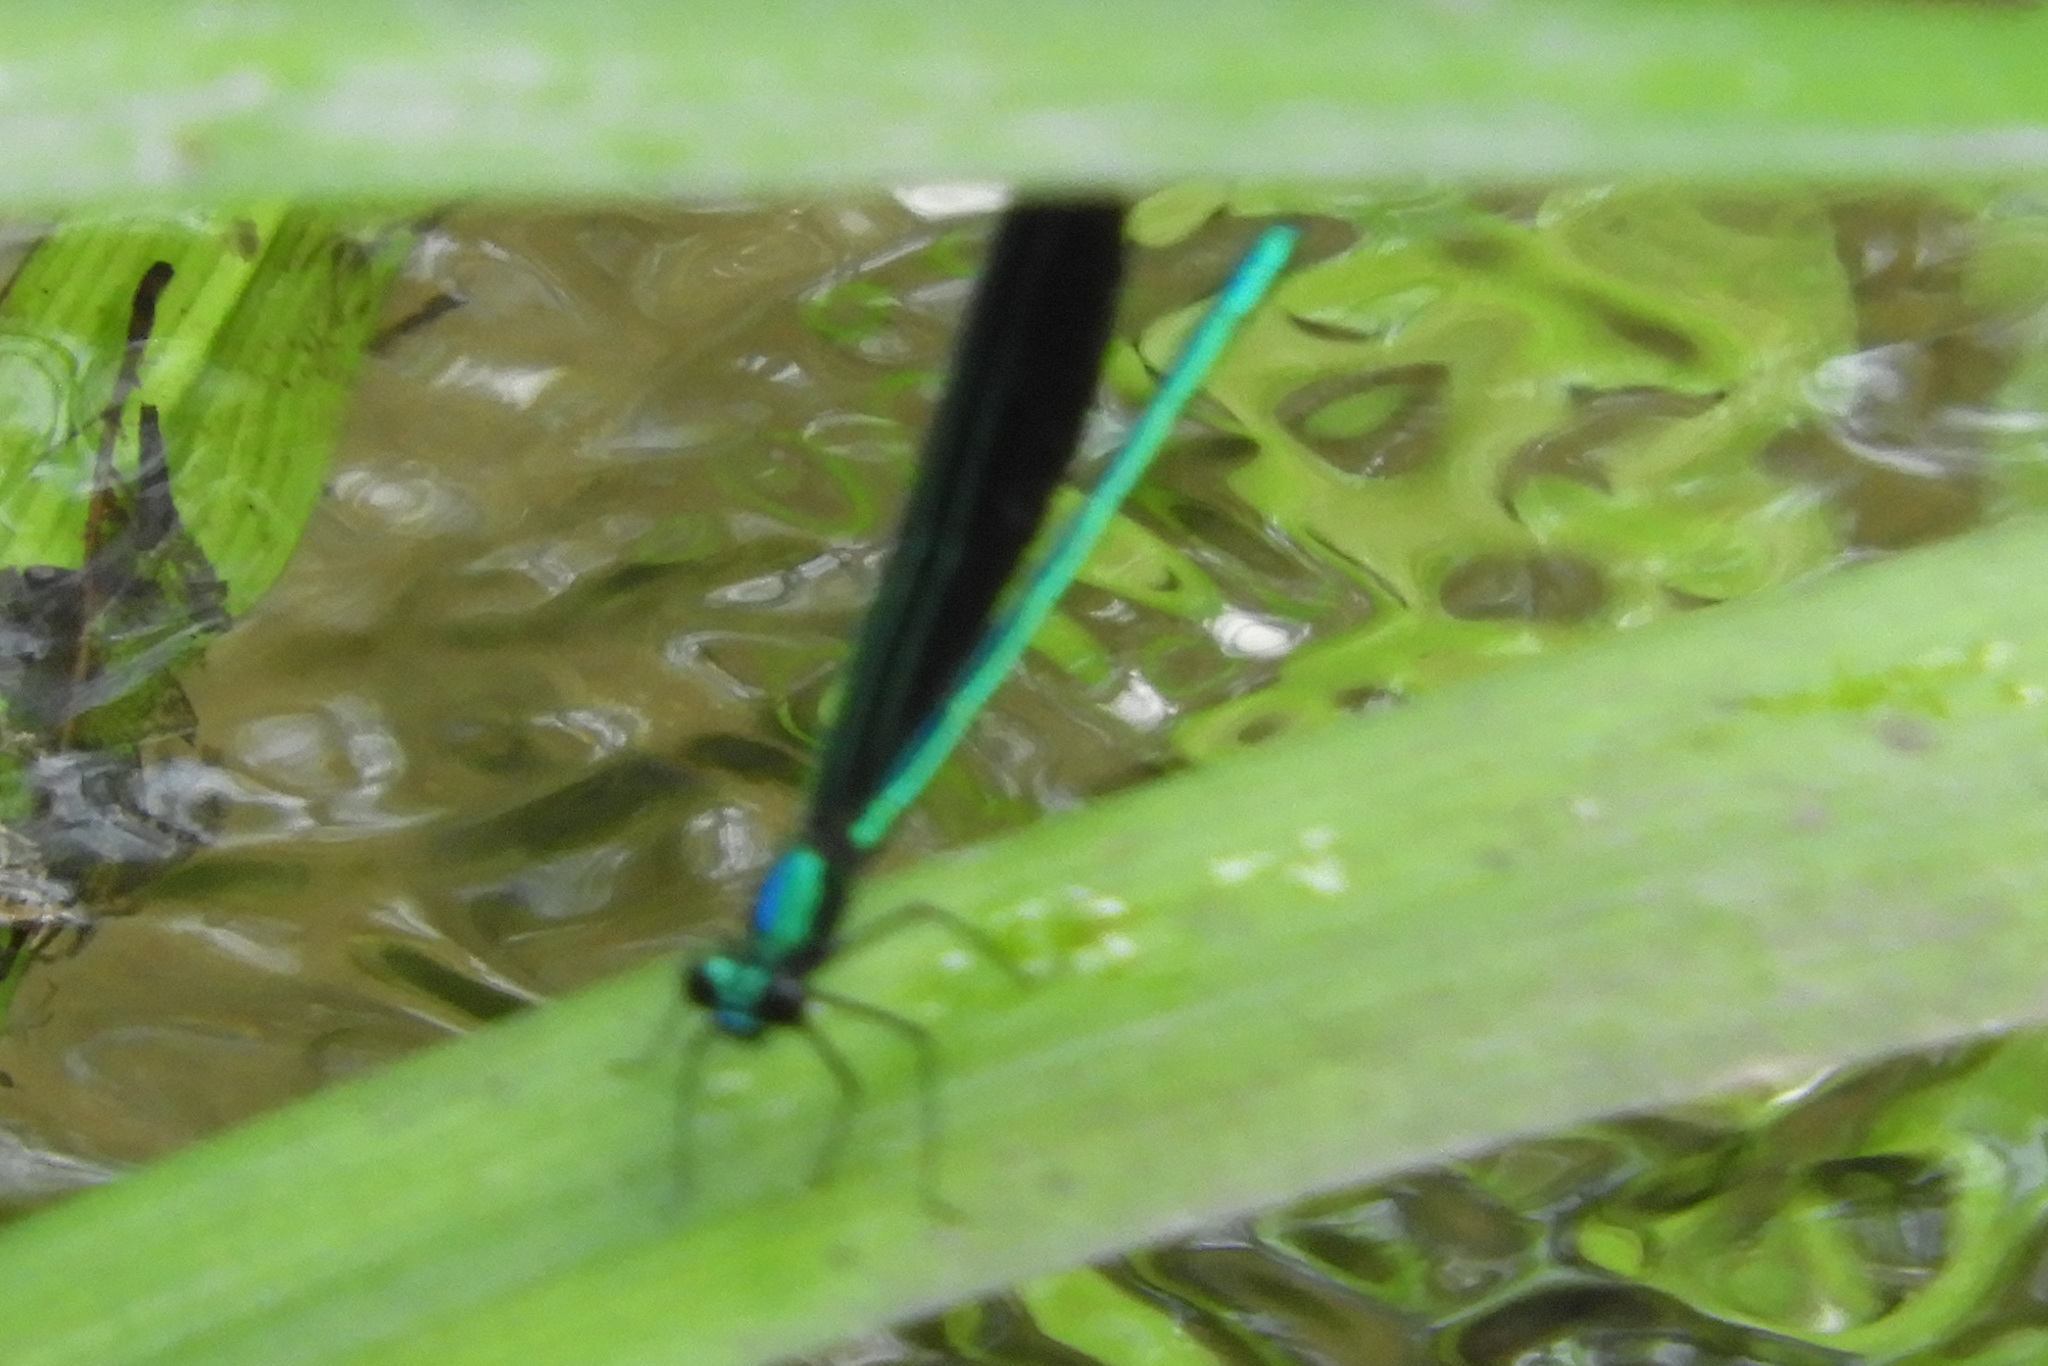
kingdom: Animalia
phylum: Arthropoda
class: Insecta
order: Odonata
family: Calopterygidae
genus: Calopteryx
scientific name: Calopteryx maculata
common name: Ebony jewelwing
